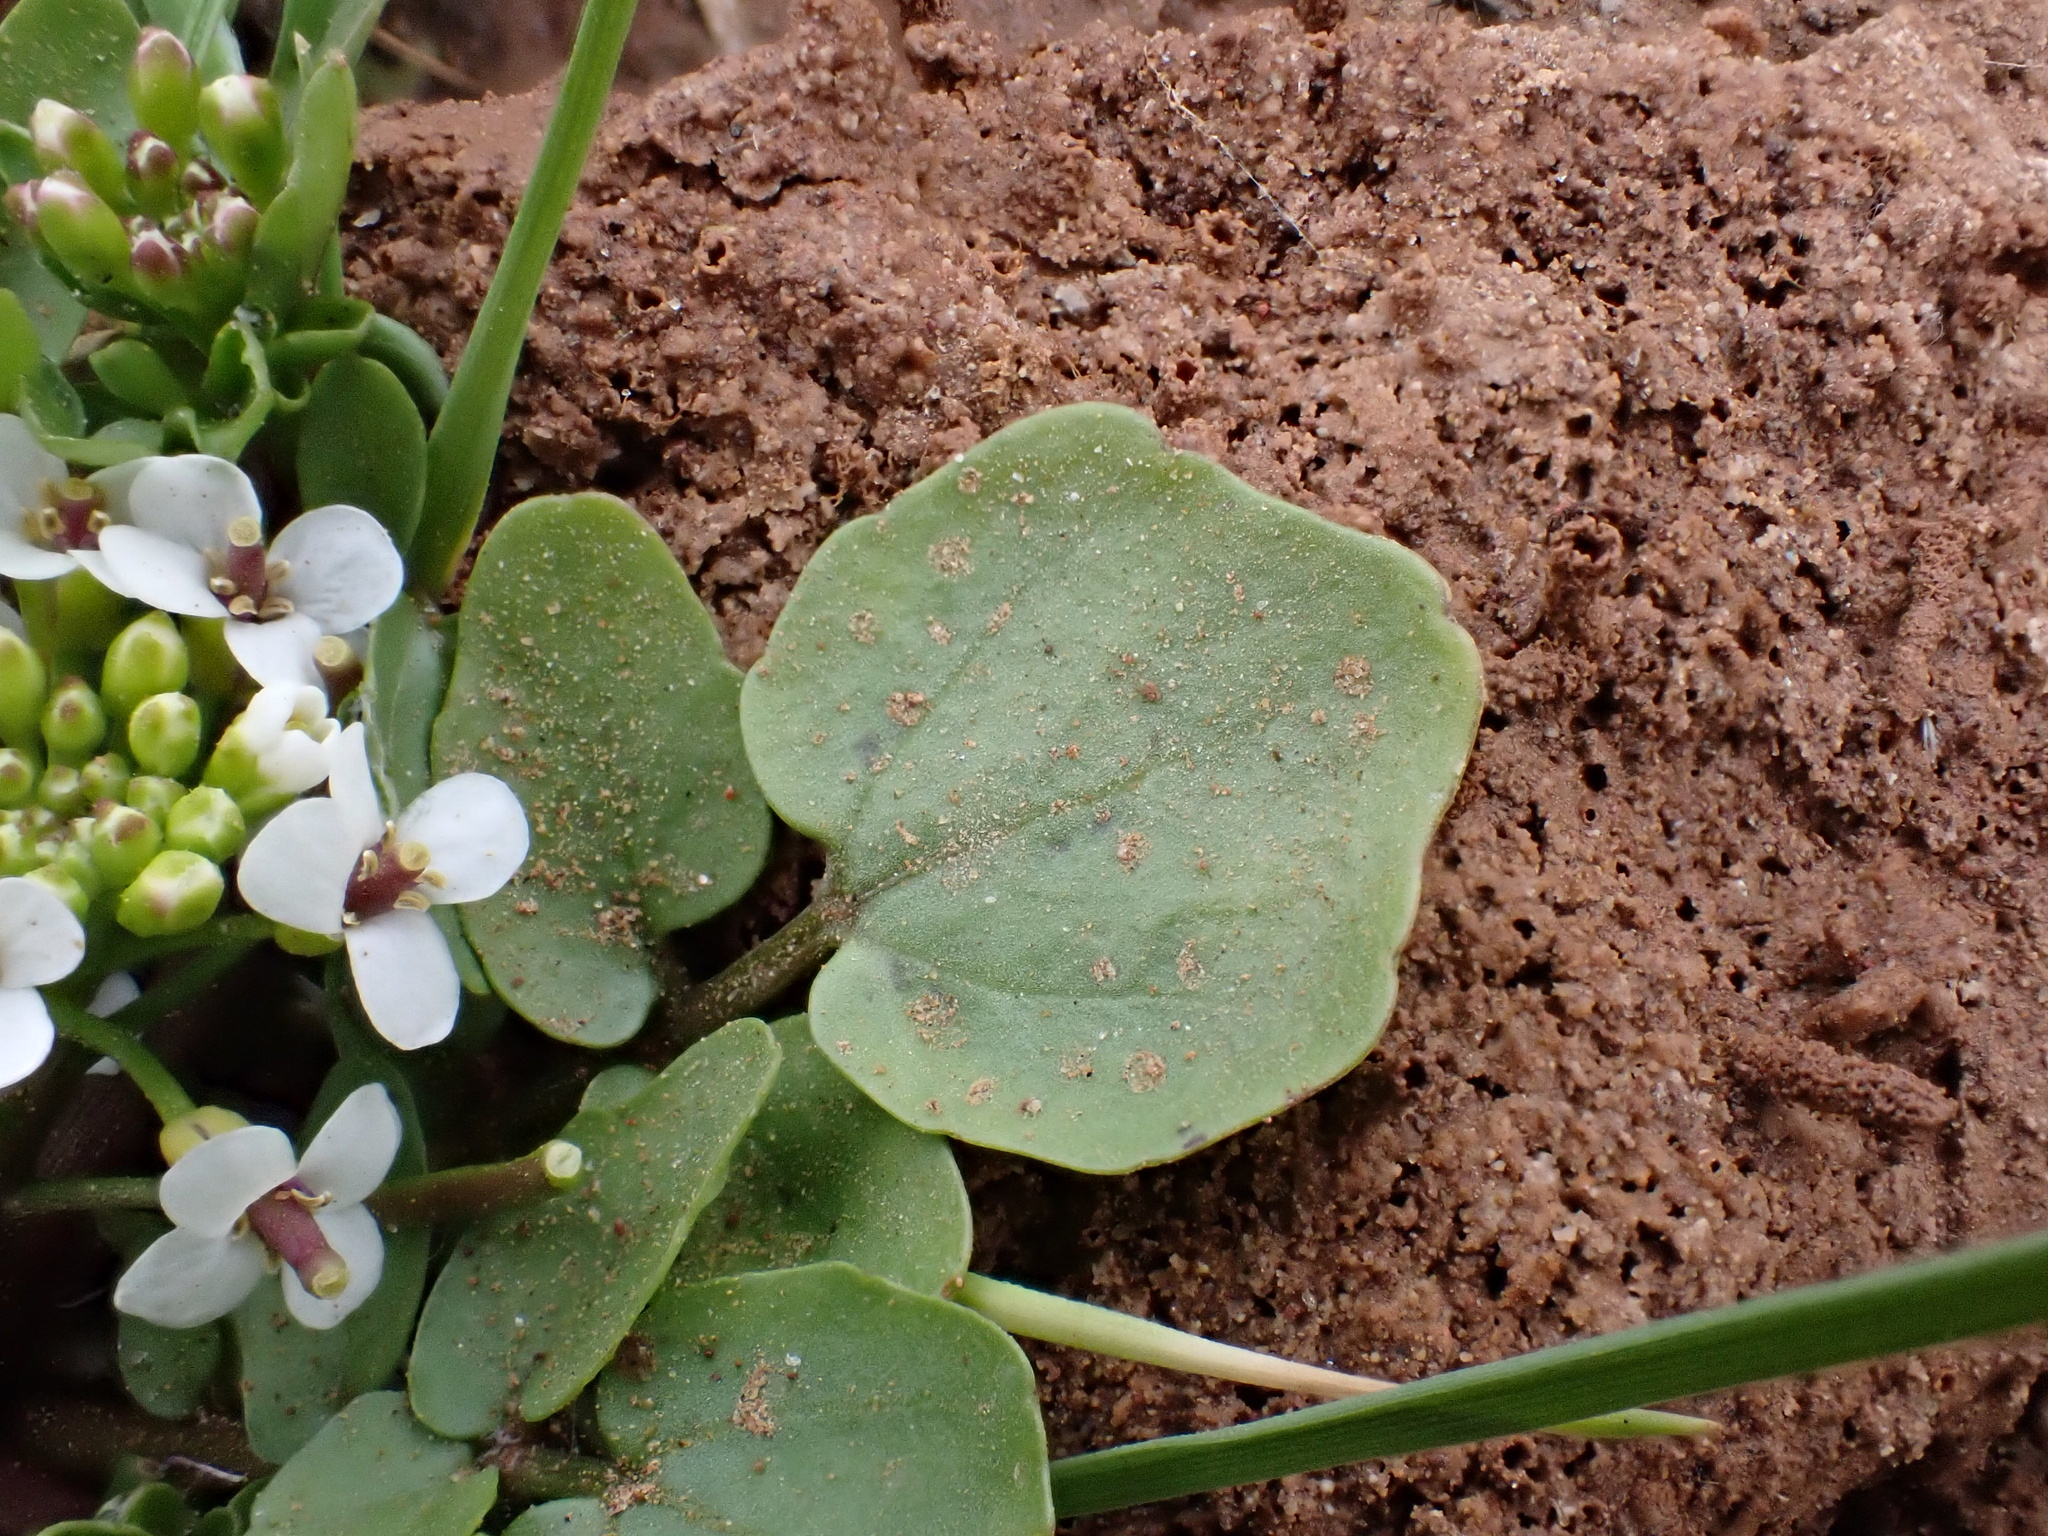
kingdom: Plantae
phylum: Tracheophyta
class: Magnoliopsida
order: Brassicales
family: Brassicaceae
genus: Nasturtium
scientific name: Nasturtium officinale
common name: Watercress
